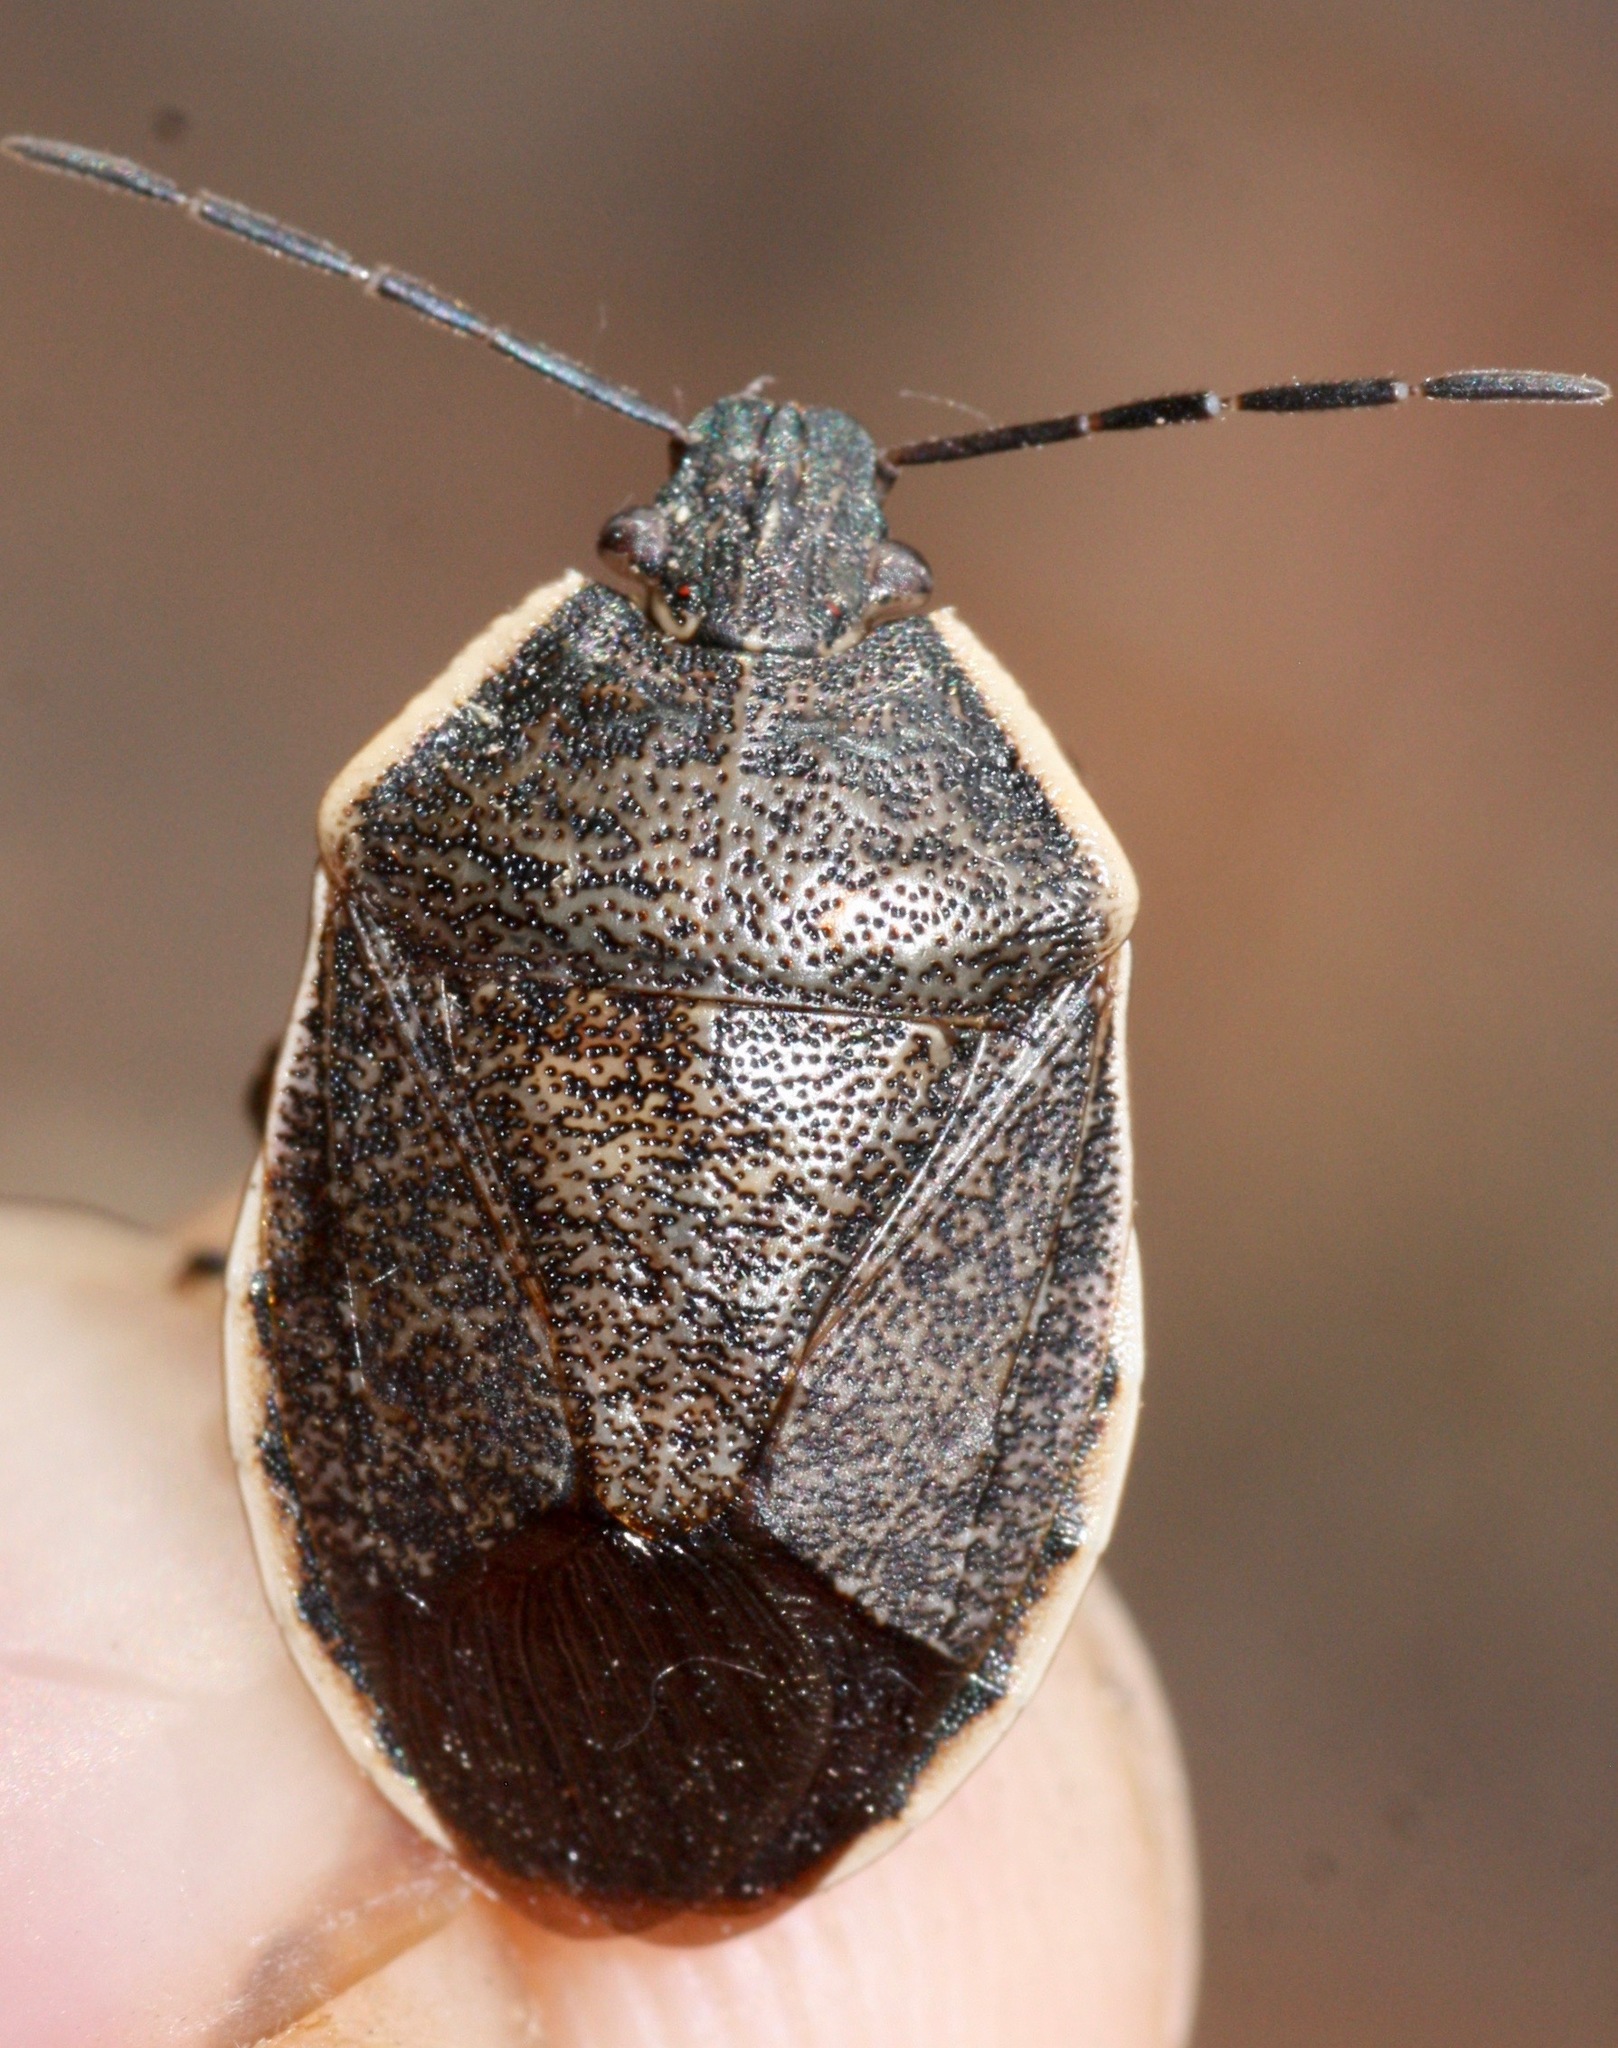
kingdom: Animalia
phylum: Arthropoda
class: Insecta
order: Hemiptera
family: Pentatomidae
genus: Apateticus
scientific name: Apateticus marginiventris
